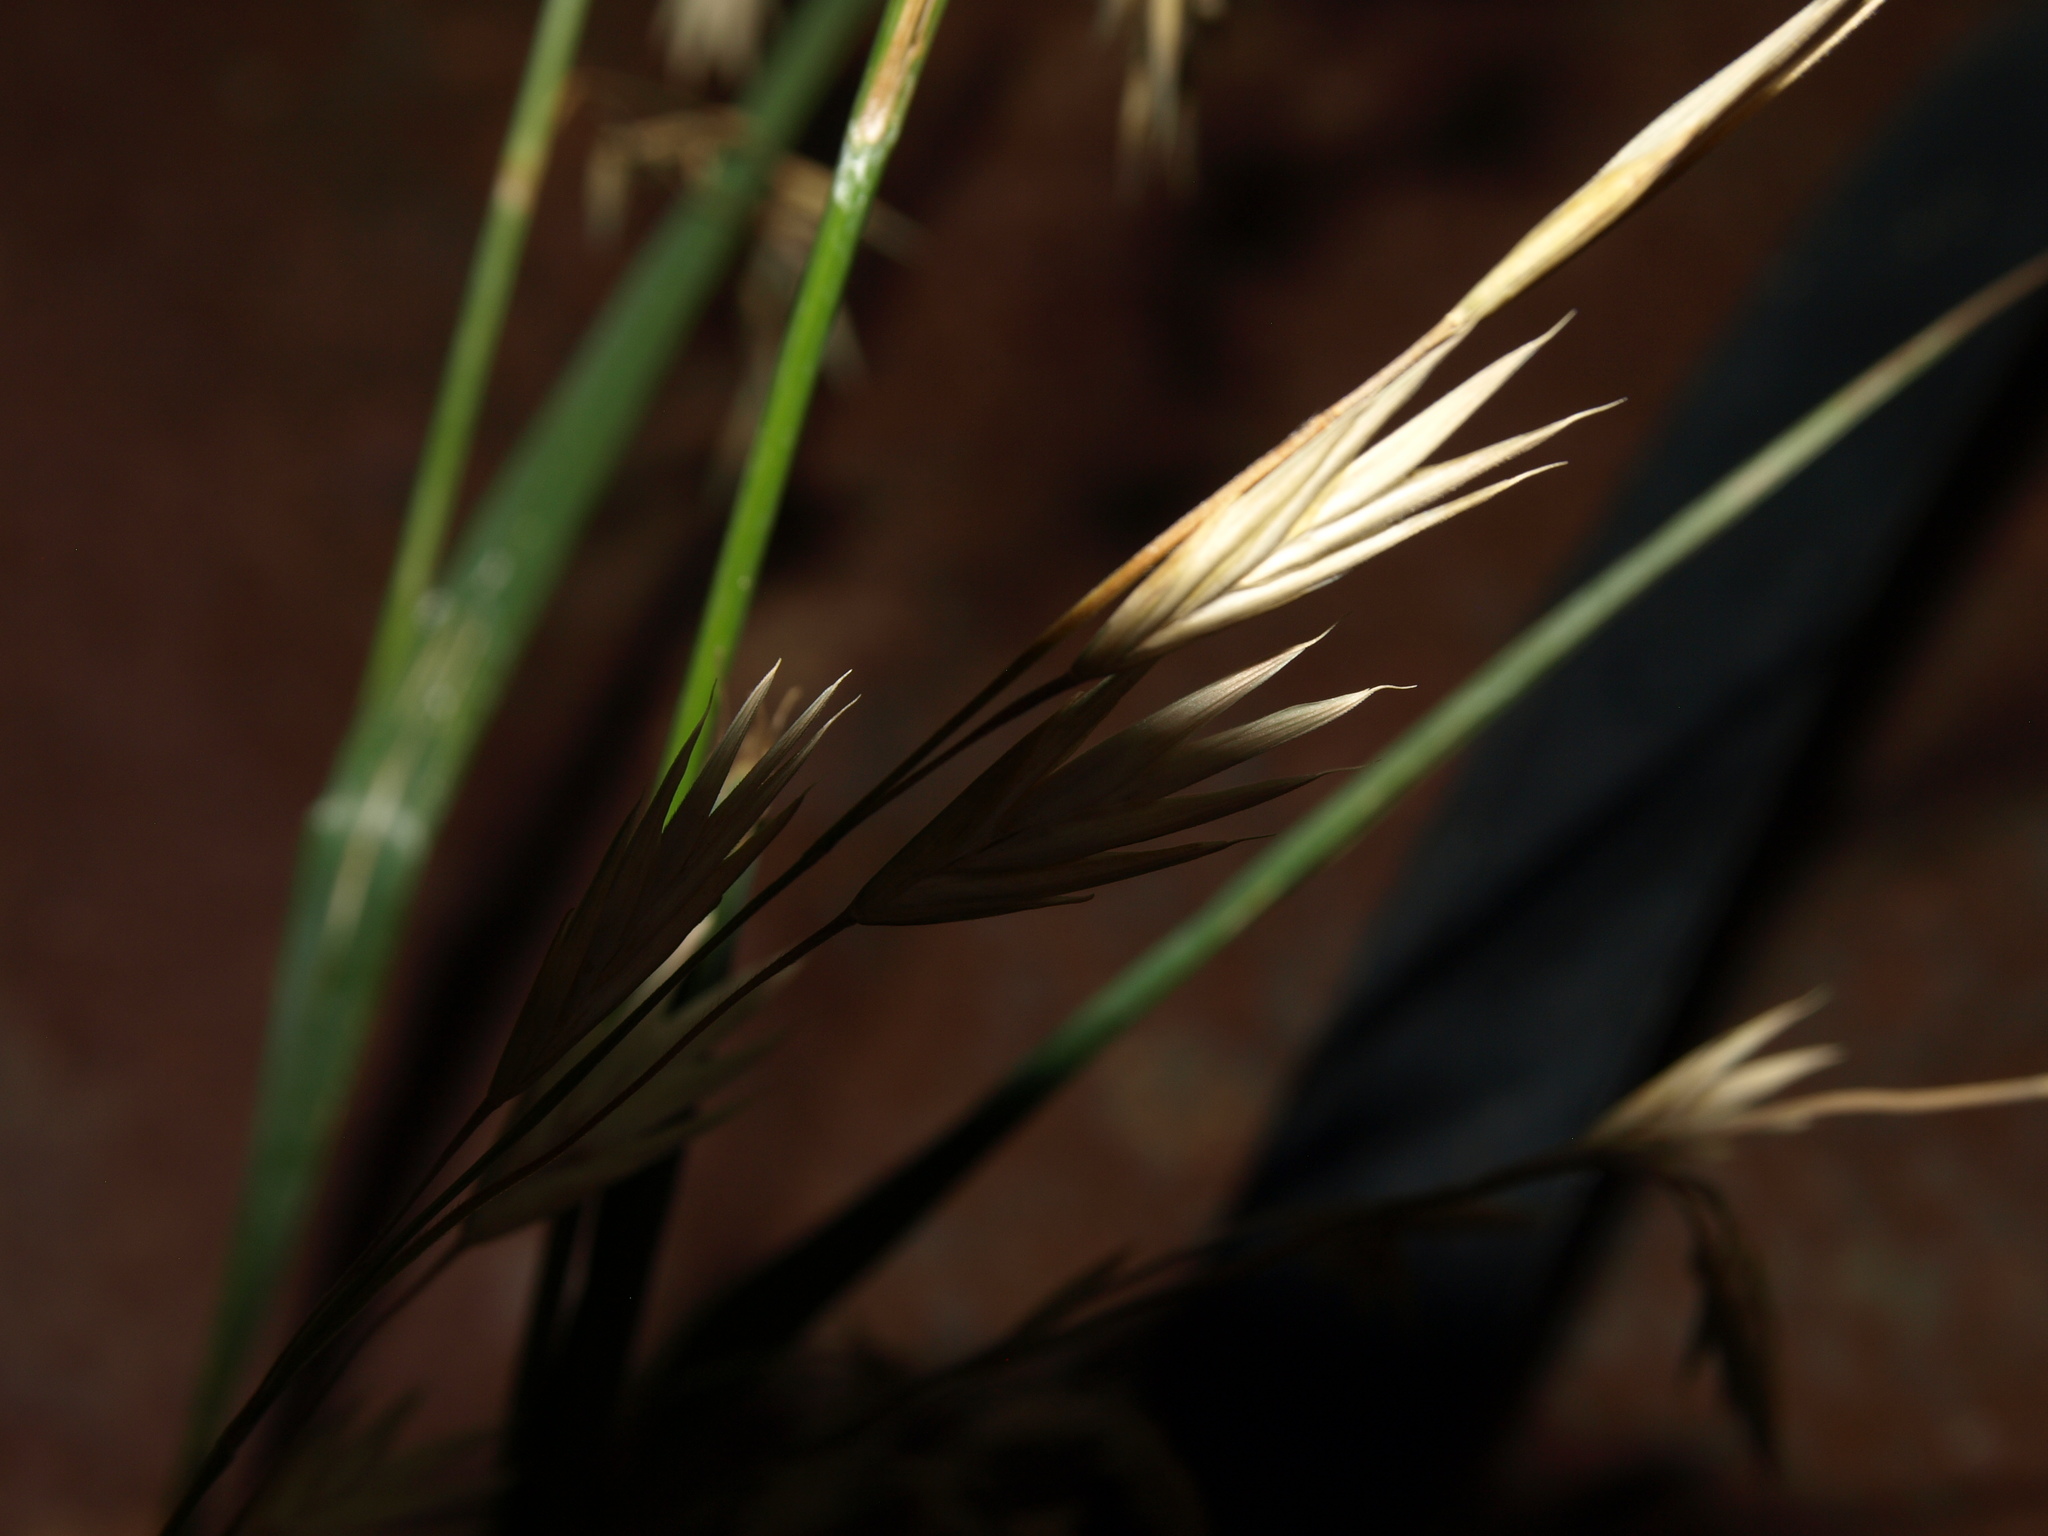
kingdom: Plantae
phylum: Tracheophyta
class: Liliopsida
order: Poales
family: Poaceae
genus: Bromus
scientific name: Bromus catharticus
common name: Rescuegrass
